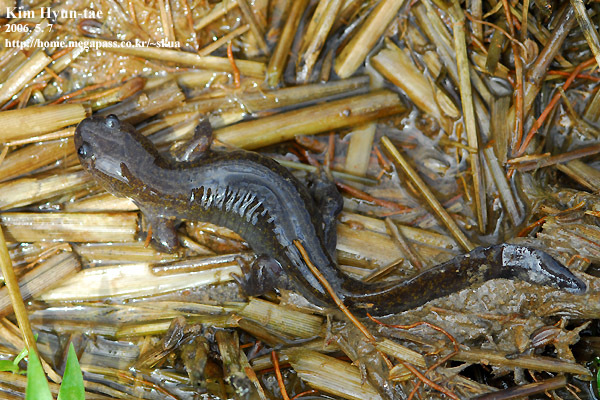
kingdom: Animalia
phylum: Chordata
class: Amphibia
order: Caudata
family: Hynobiidae
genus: Hynobius
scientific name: Hynobius leechii
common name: Gensan salamander
